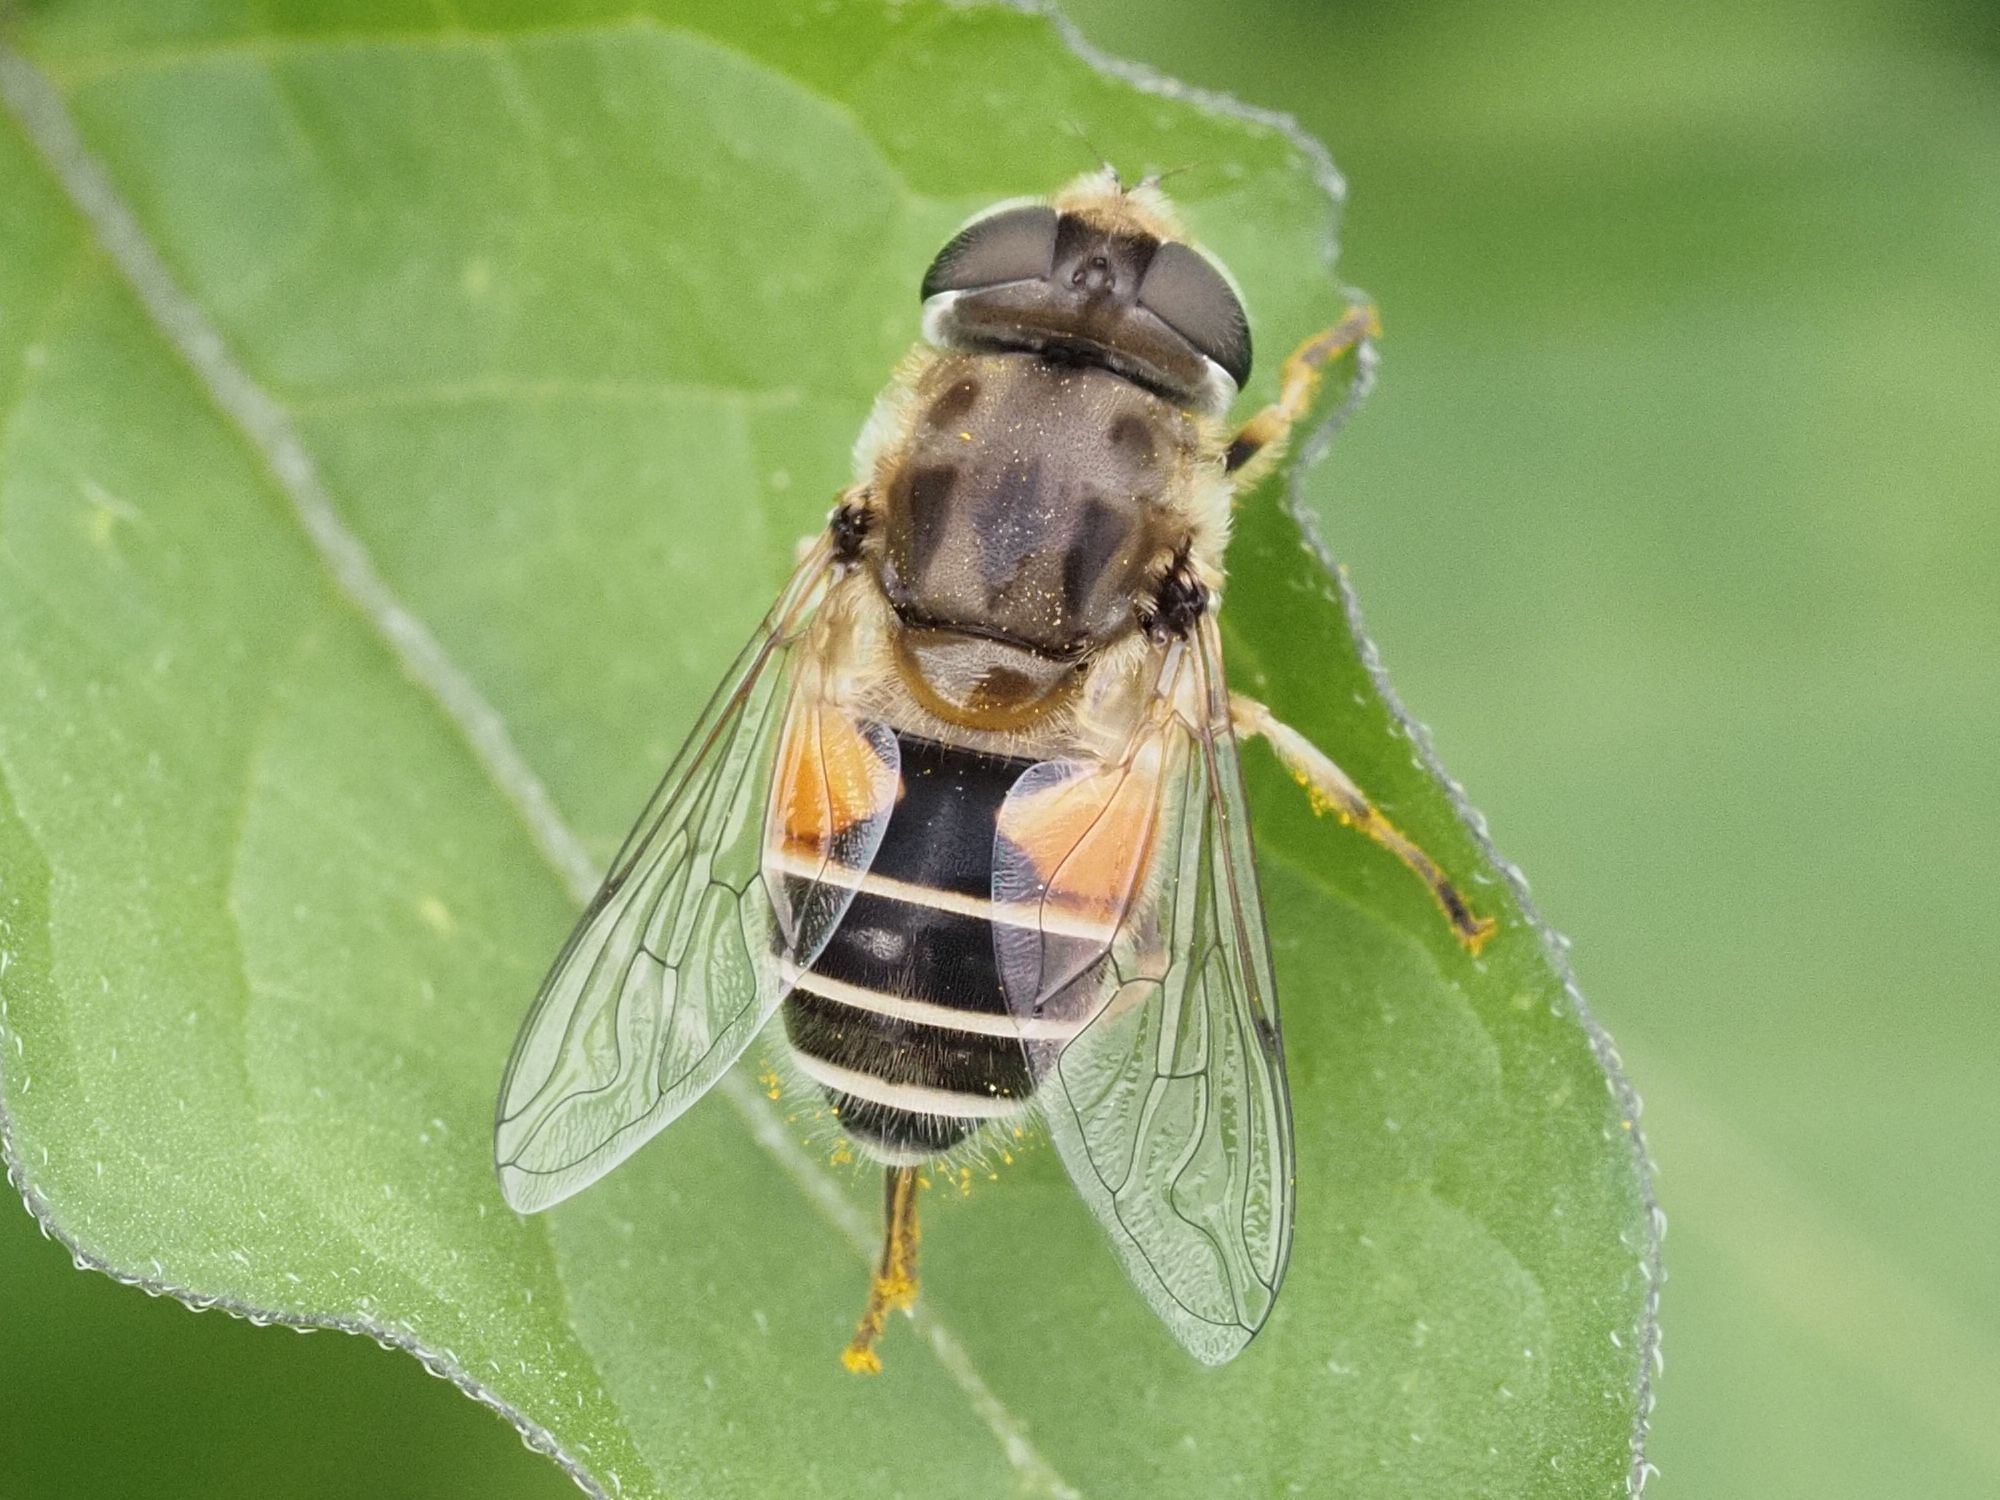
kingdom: Animalia
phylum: Arthropoda
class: Insecta
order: Diptera
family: Syrphidae
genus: Eristalis
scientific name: Eristalis arbustorum
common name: Hover fly
